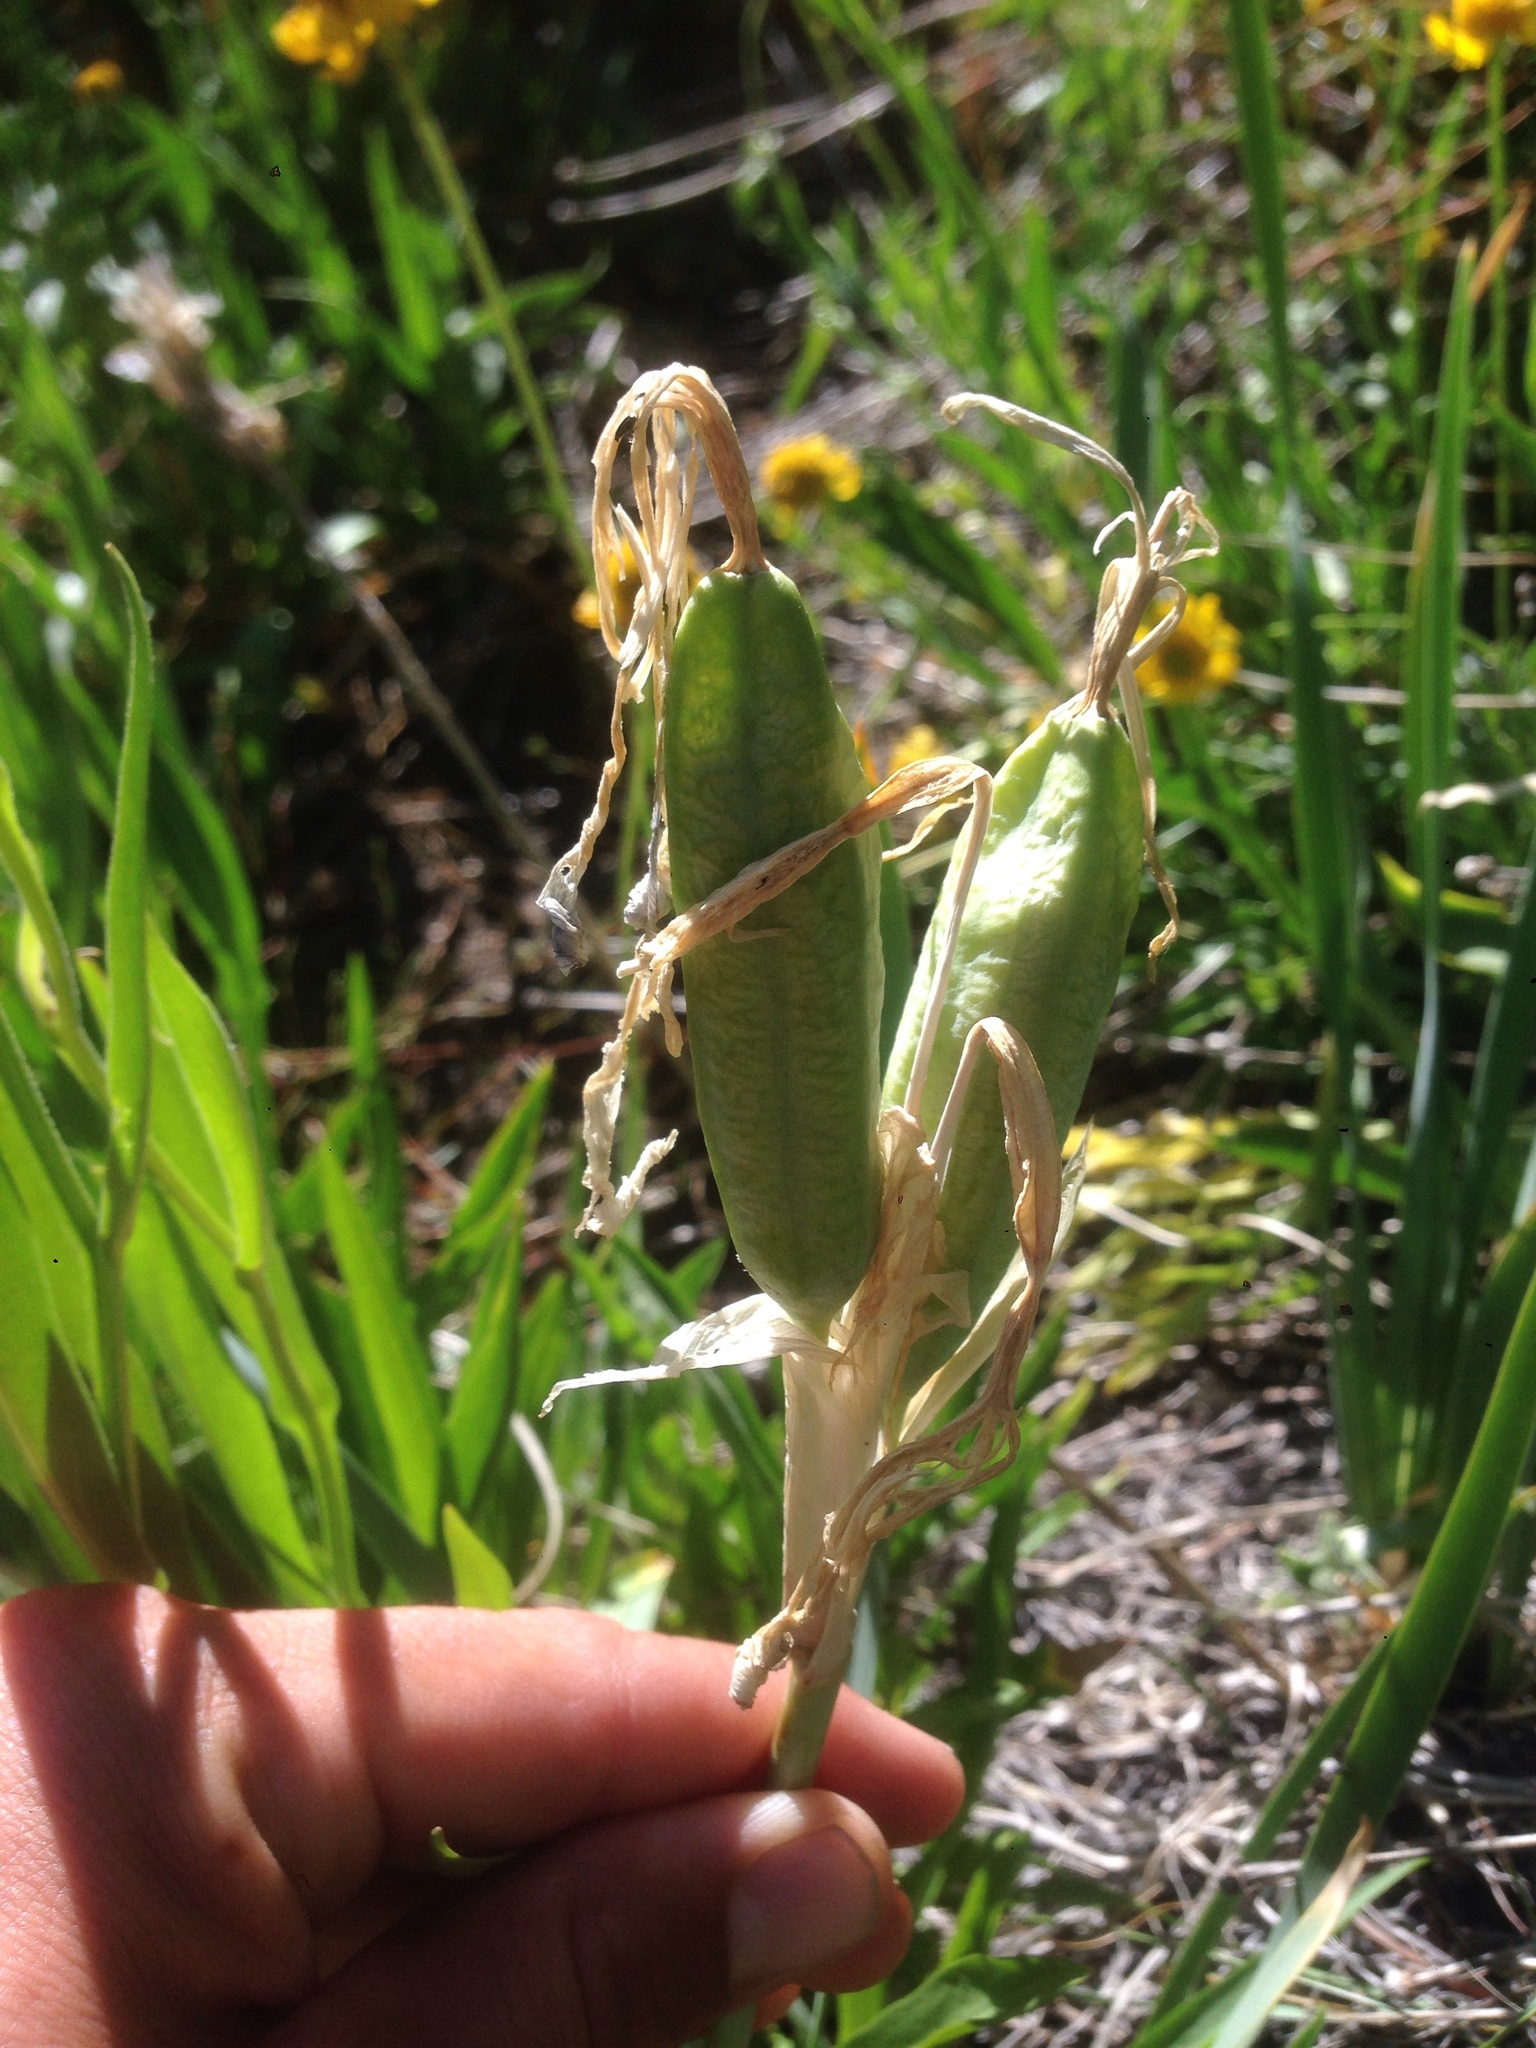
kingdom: Plantae
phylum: Tracheophyta
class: Liliopsida
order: Asparagales
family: Iridaceae
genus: Iris
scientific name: Iris missouriensis
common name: Rocky mountain iris
